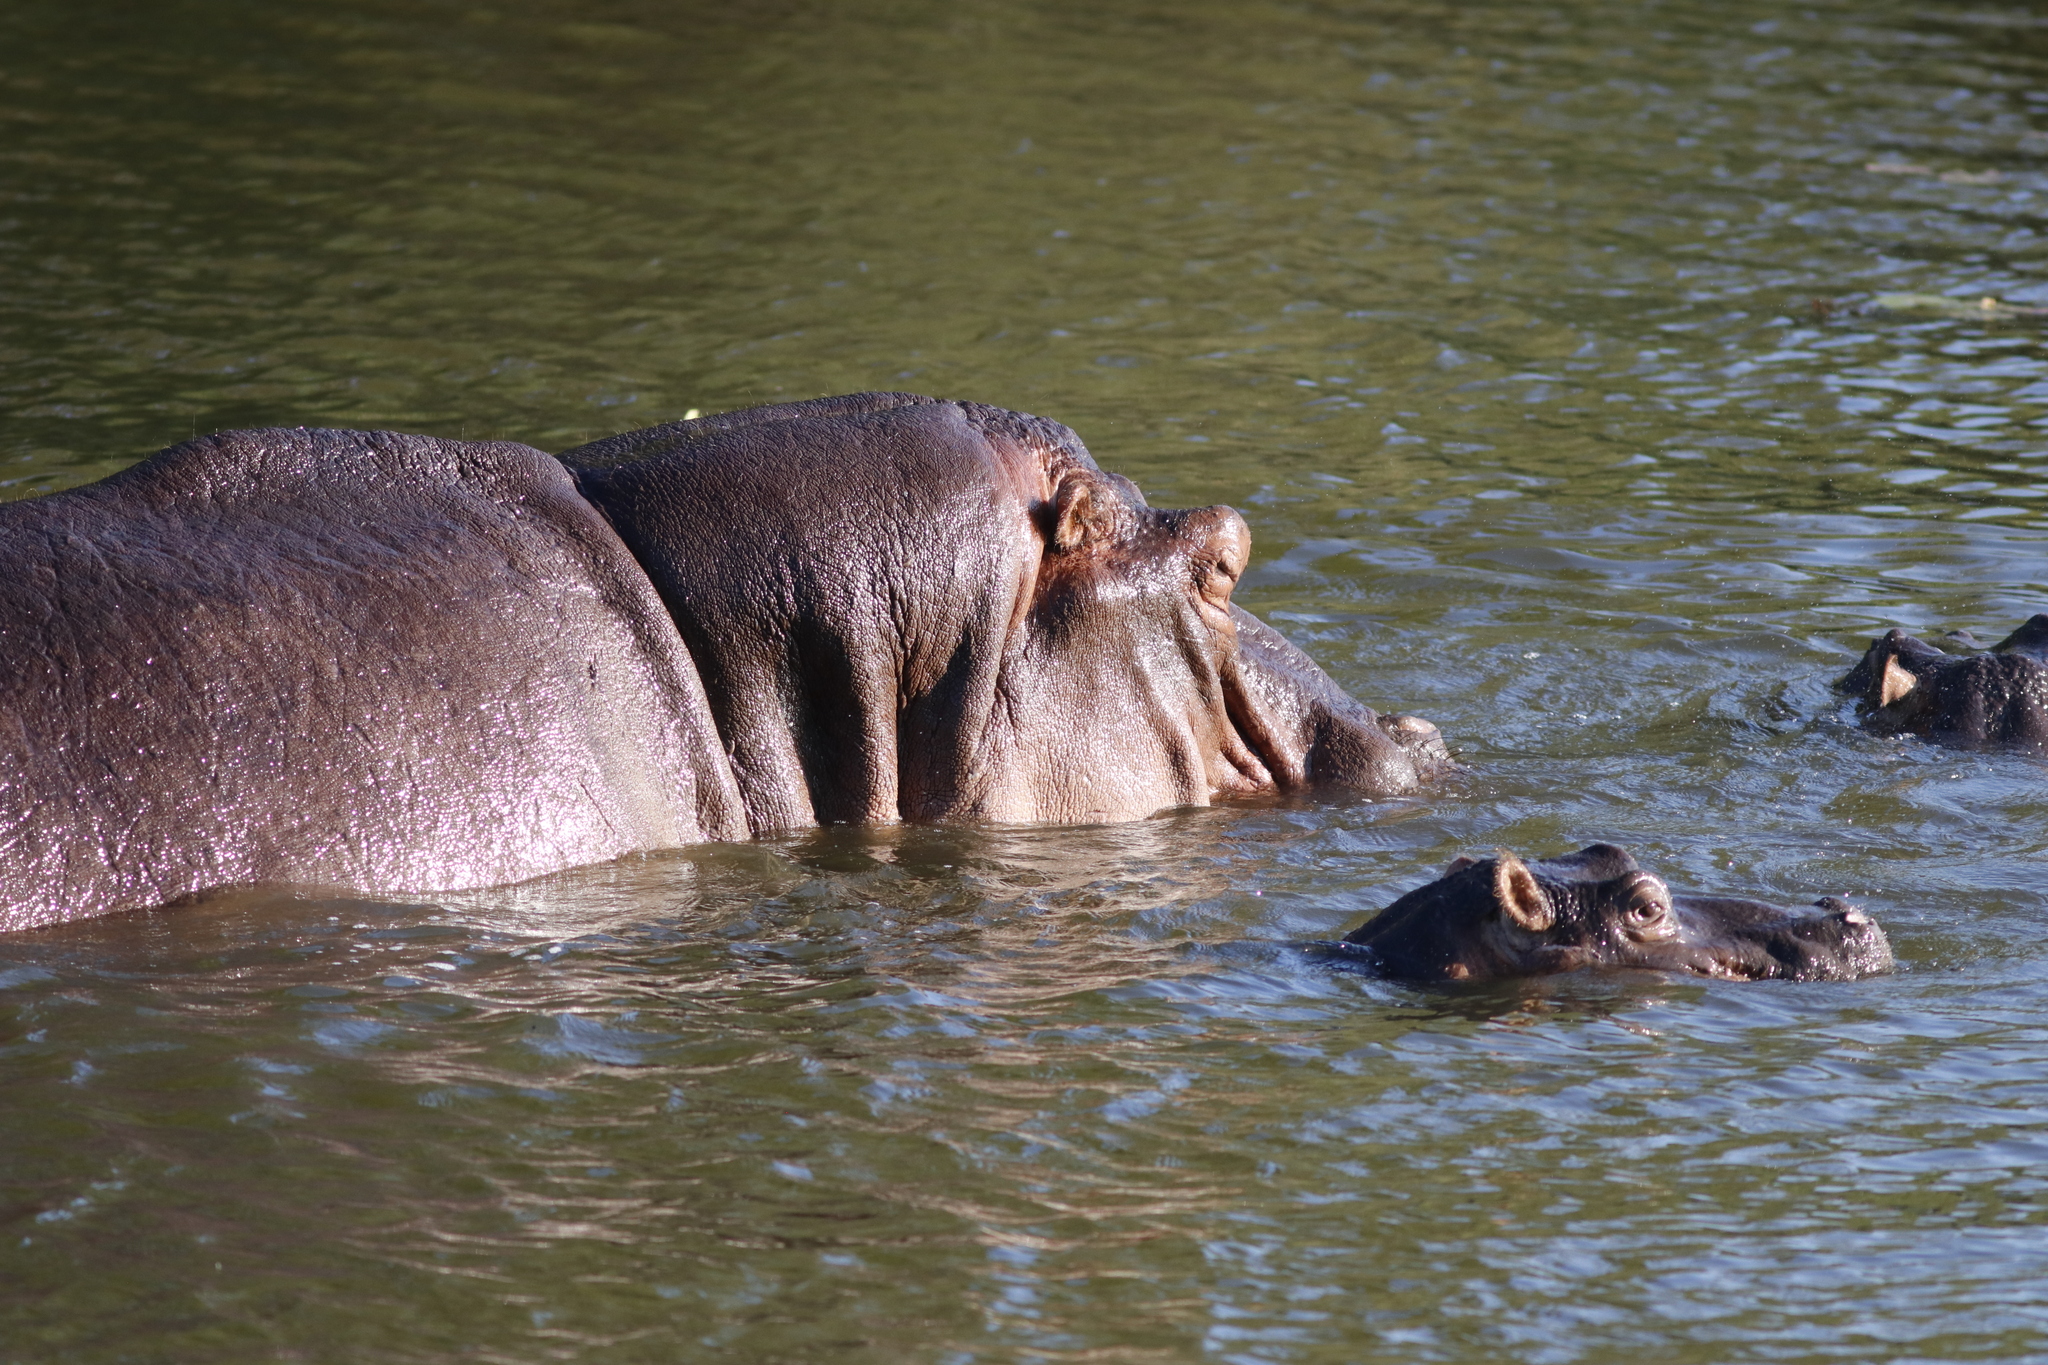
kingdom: Animalia
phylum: Chordata
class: Mammalia
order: Artiodactyla
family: Hippopotamidae
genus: Hippopotamus
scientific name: Hippopotamus amphibius
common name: Common hippopotamus
